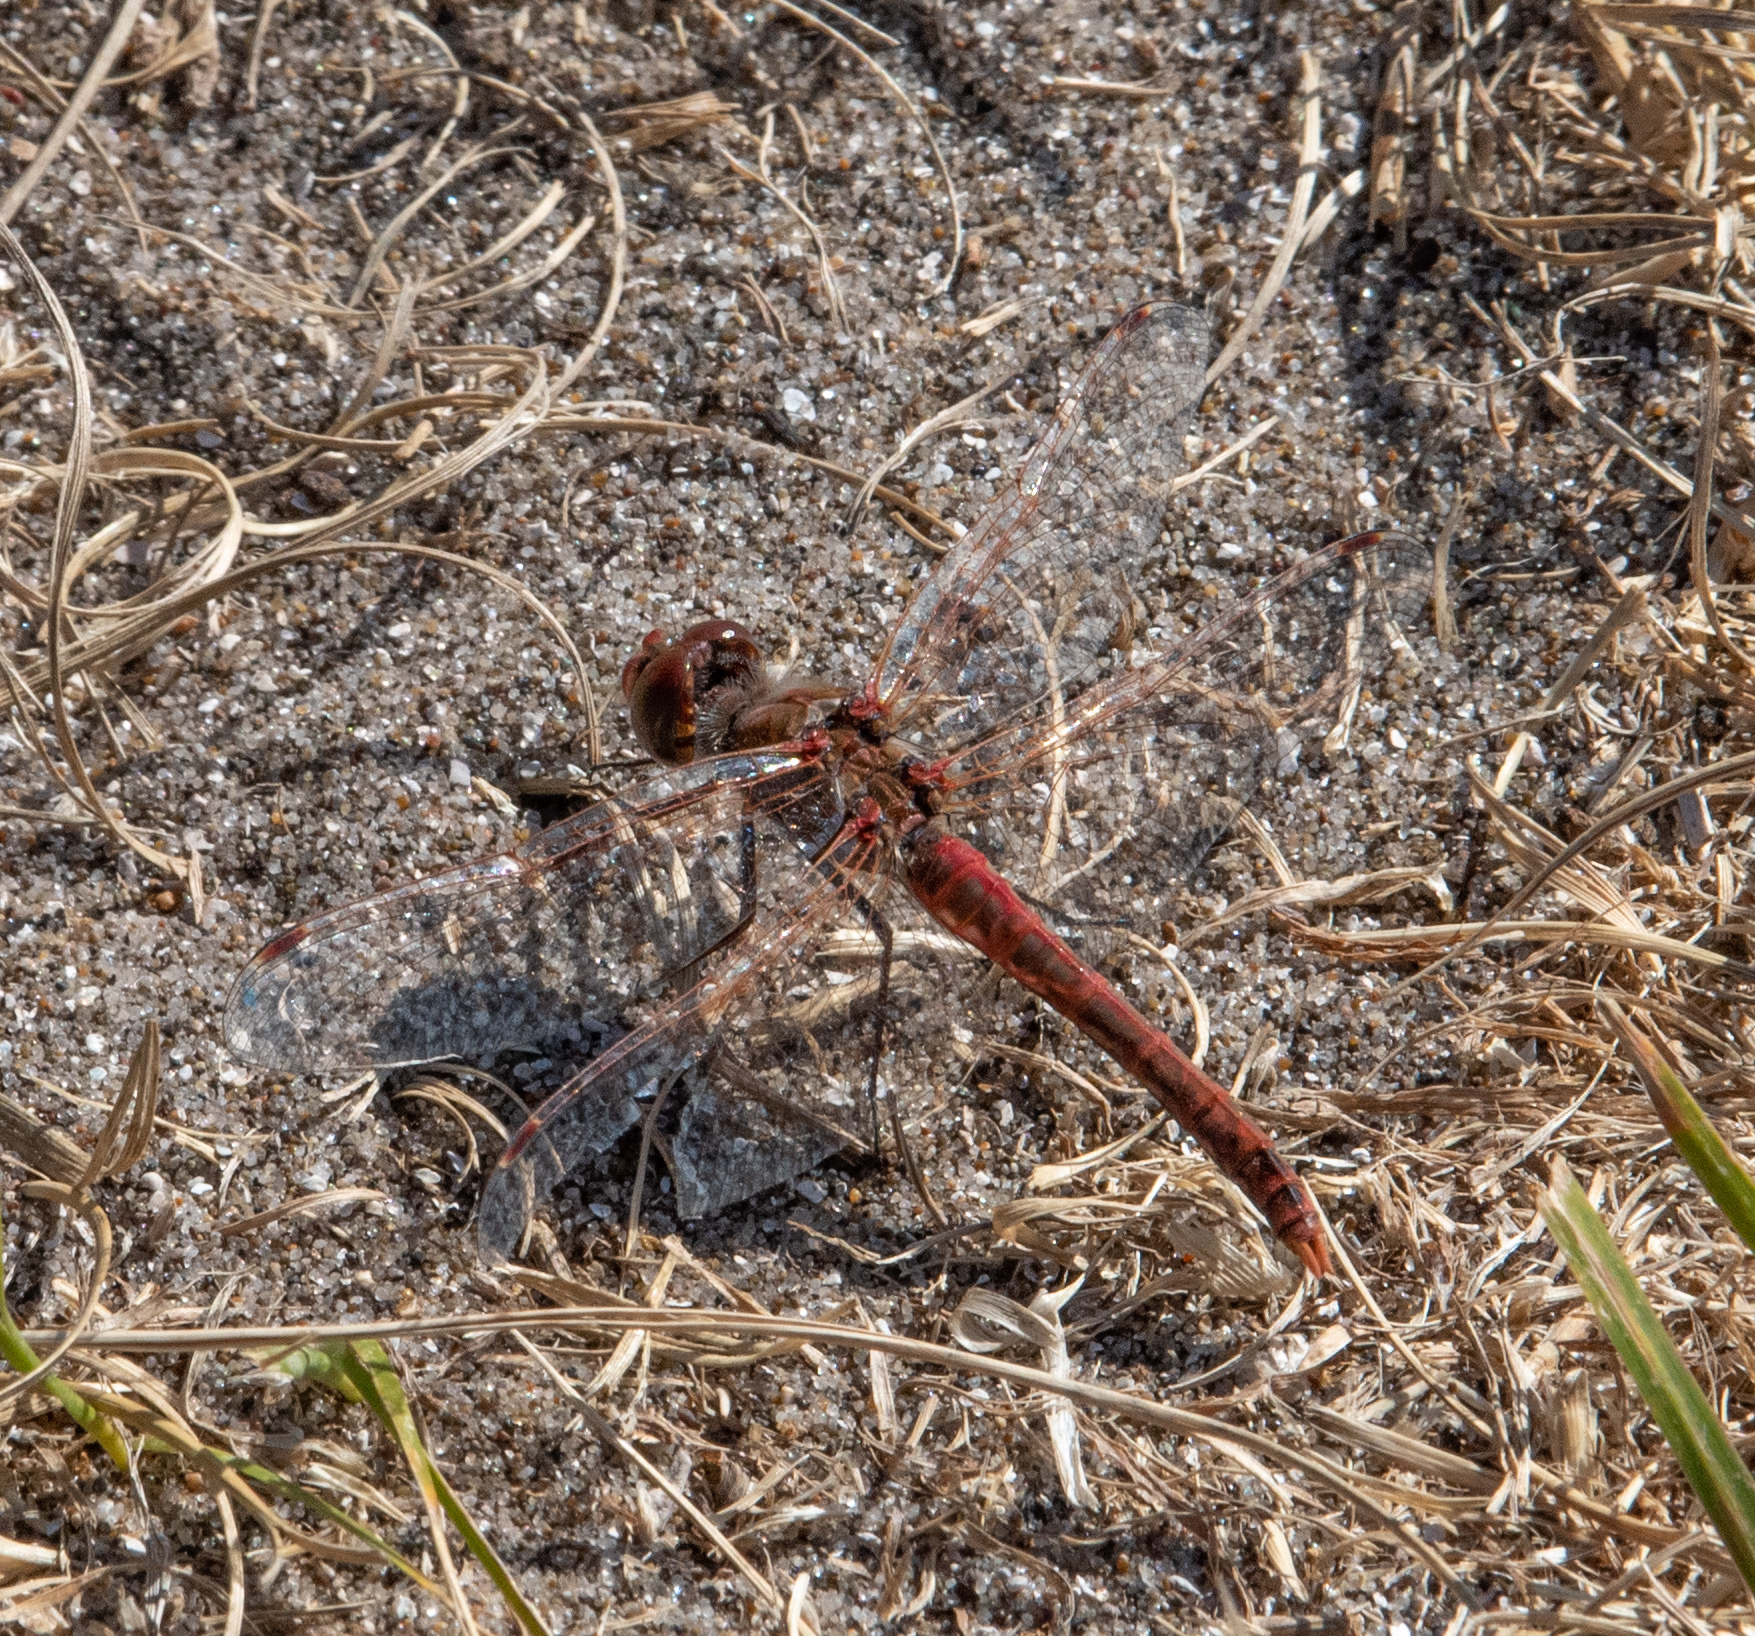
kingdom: Animalia
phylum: Arthropoda
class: Insecta
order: Odonata
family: Libellulidae
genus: Sympetrum
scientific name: Sympetrum corruptum
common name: Variegated meadowhawk
